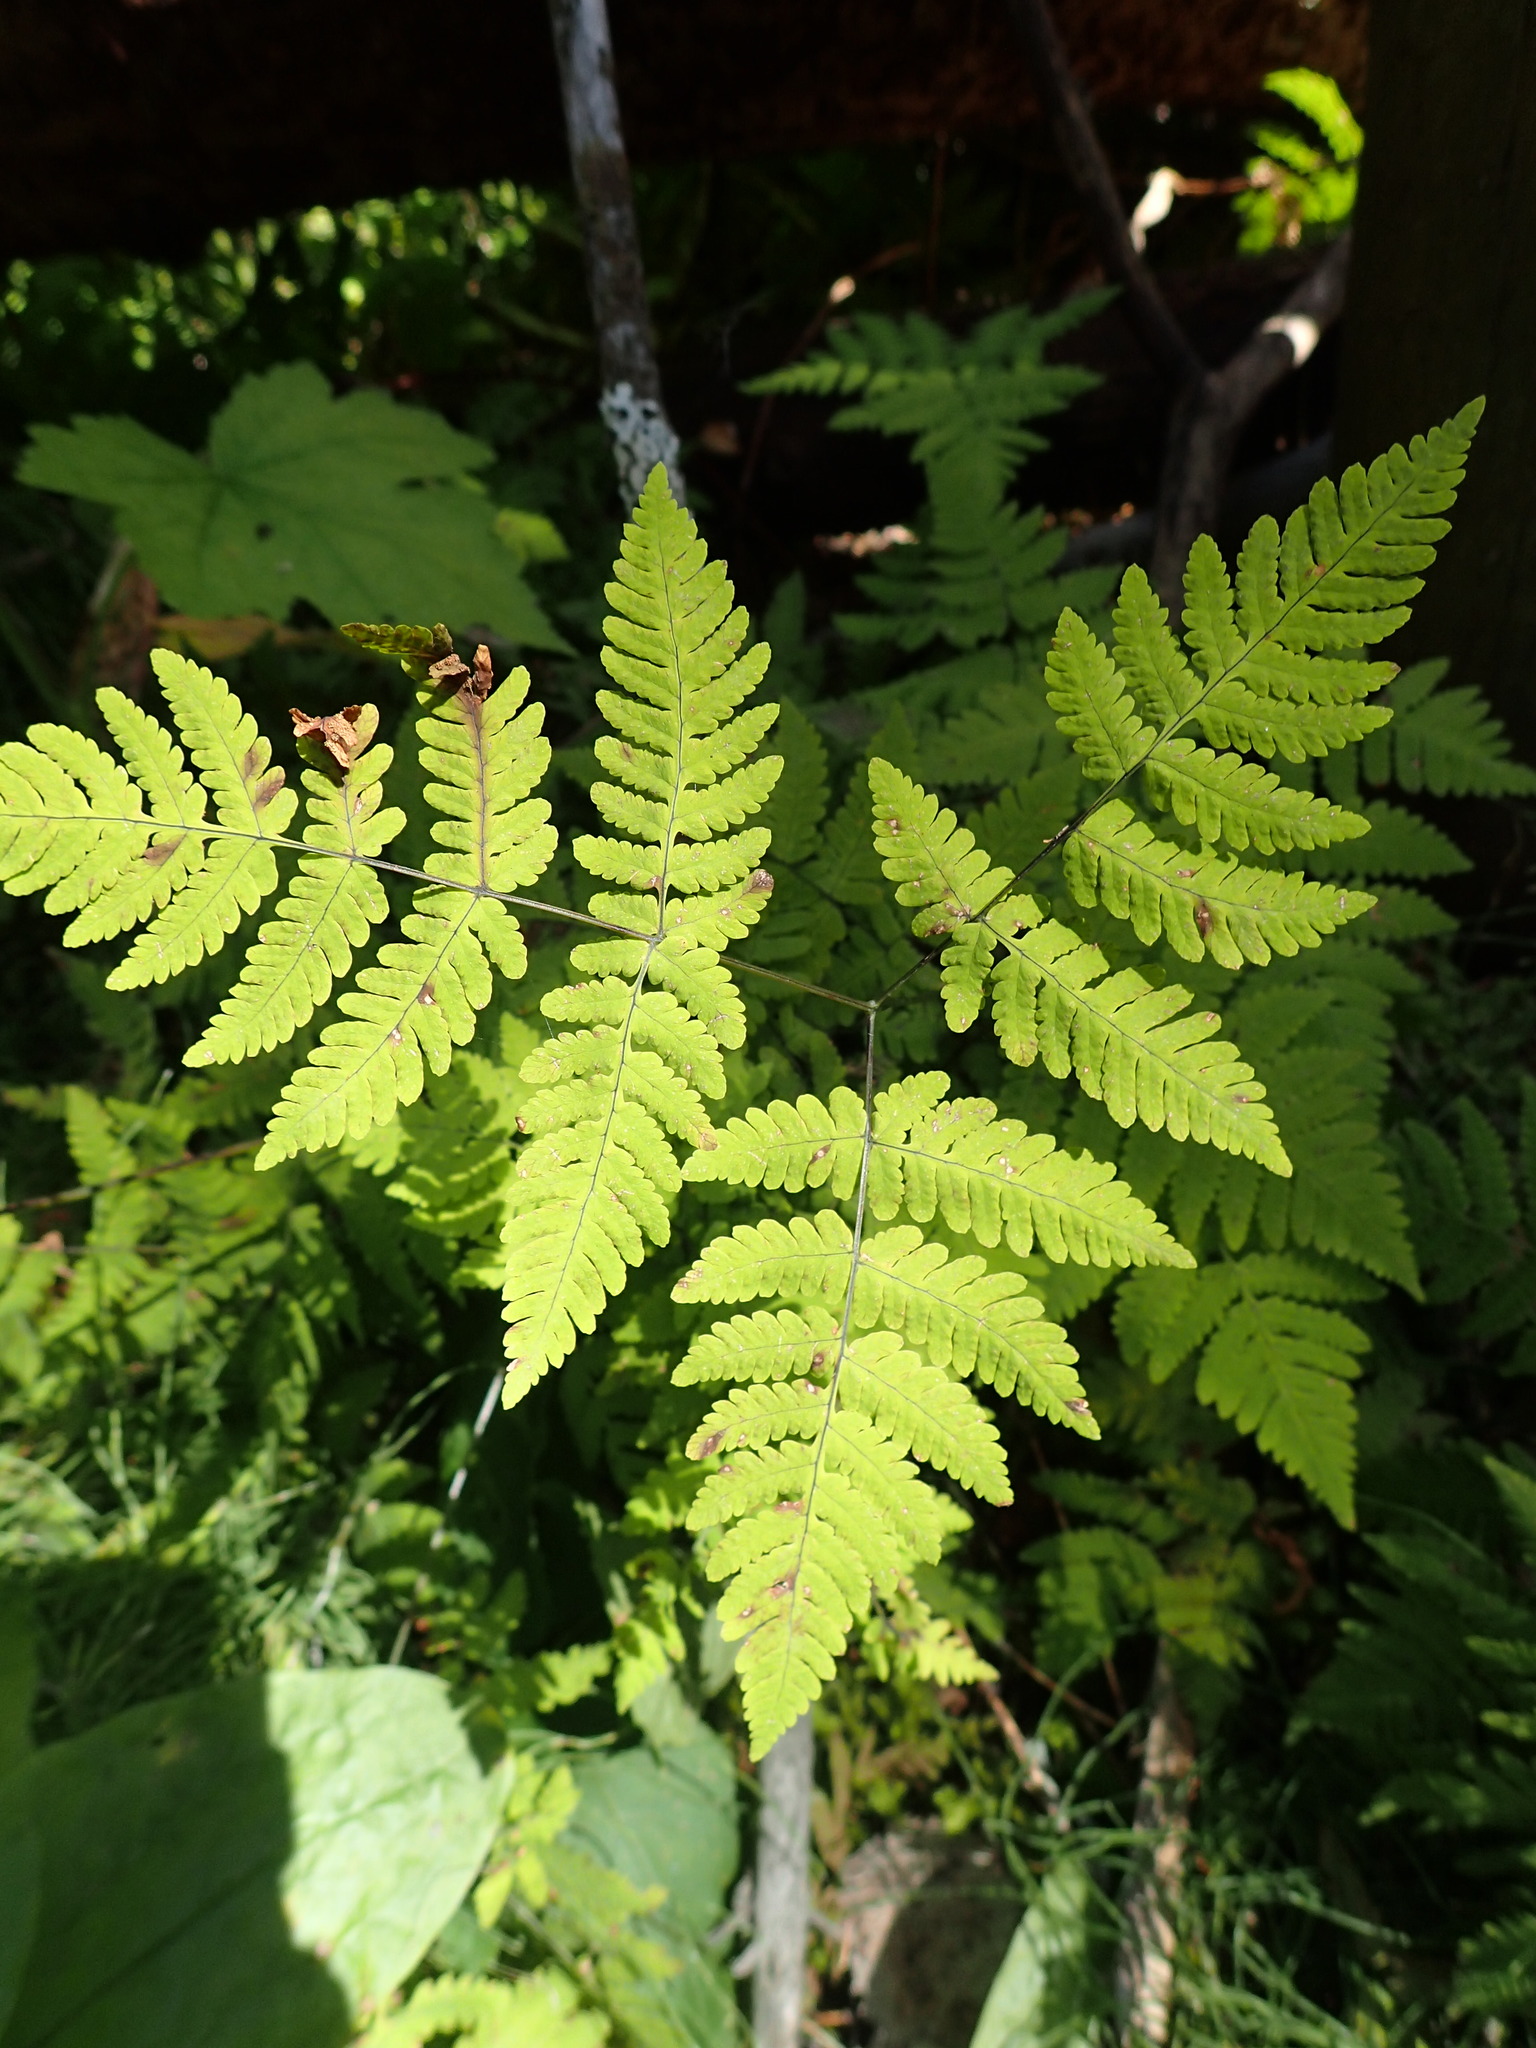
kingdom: Plantae
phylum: Tracheophyta
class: Polypodiopsida
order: Polypodiales
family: Cystopteridaceae
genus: Gymnocarpium
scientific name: Gymnocarpium dryopteris
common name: Oak fern
